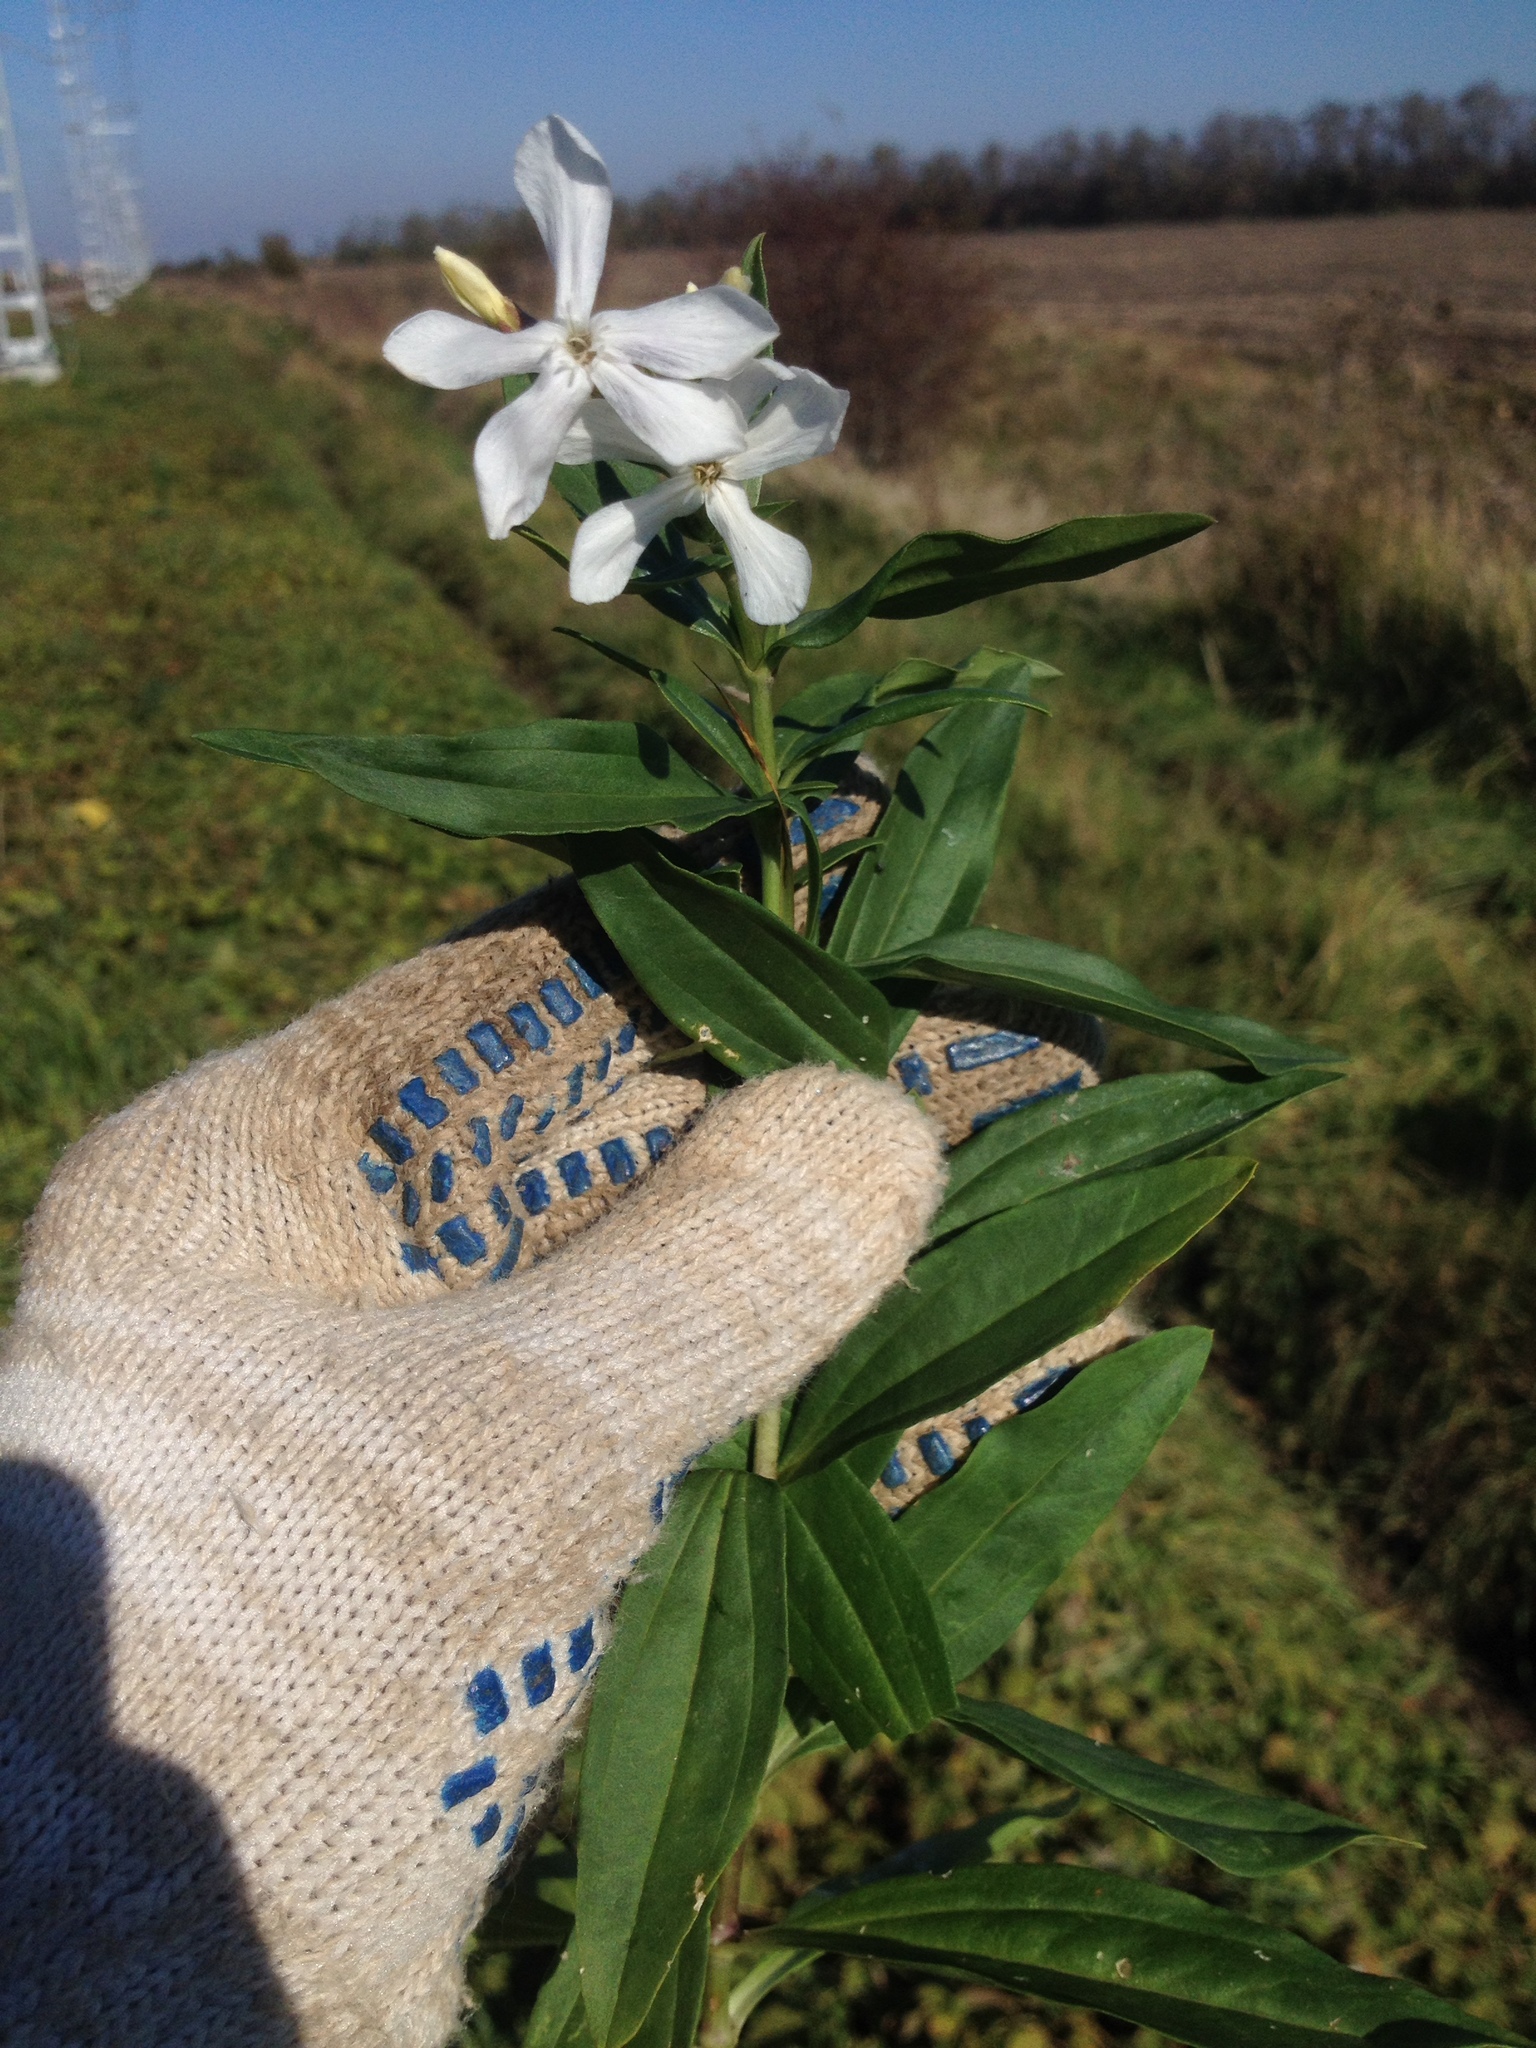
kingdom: Plantae
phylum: Tracheophyta
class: Magnoliopsida
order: Caryophyllales
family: Caryophyllaceae
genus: Saponaria
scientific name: Saponaria officinalis
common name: Soapwort
